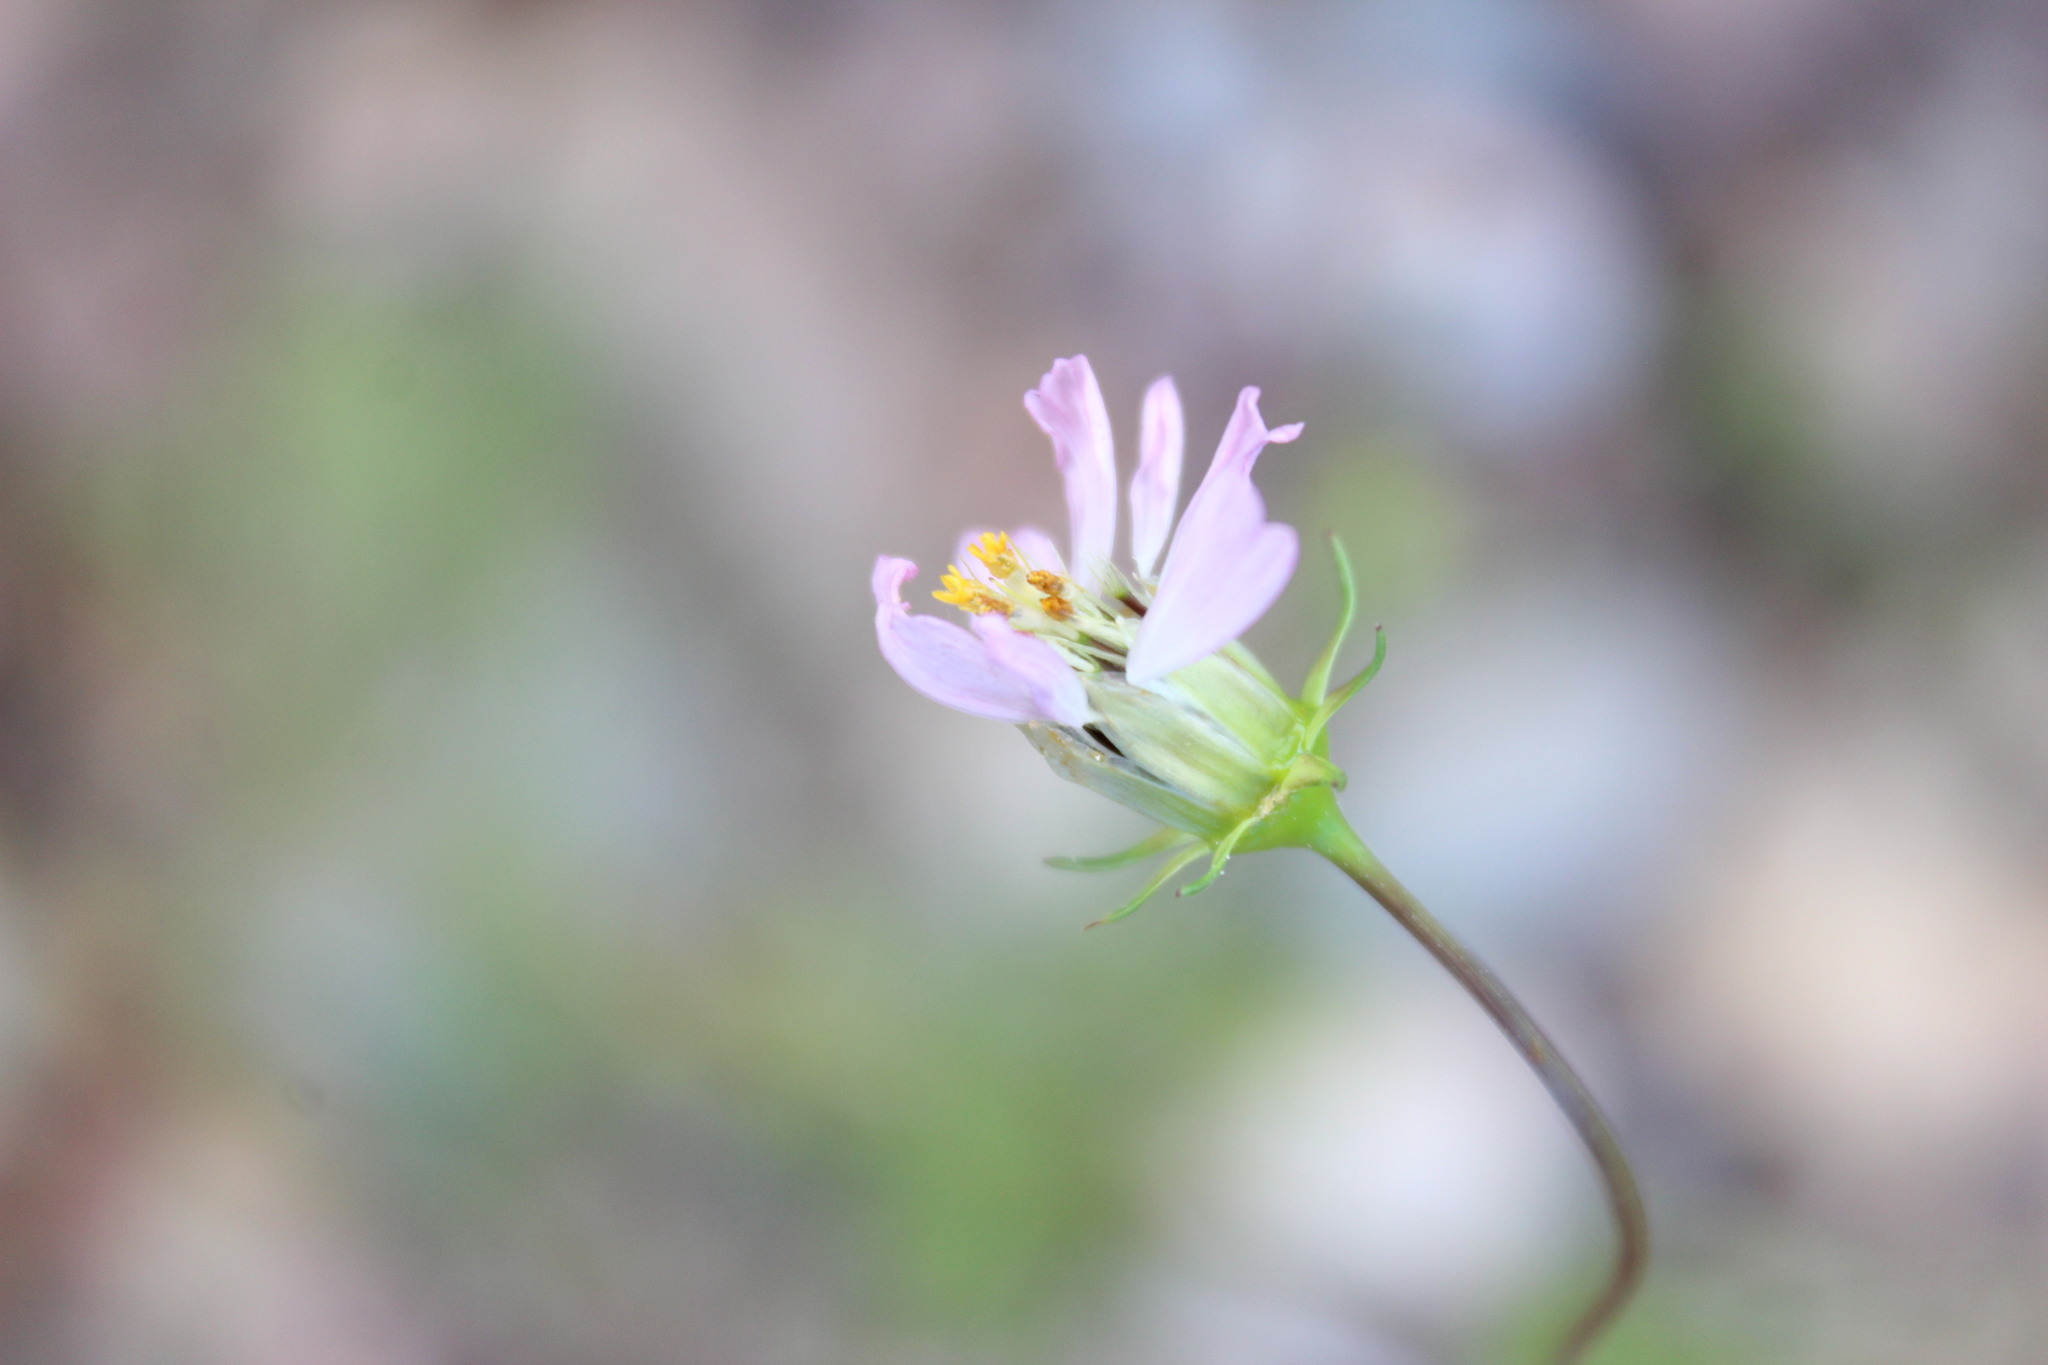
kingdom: Plantae
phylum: Tracheophyta
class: Magnoliopsida
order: Asterales
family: Asteraceae
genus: Cosmos
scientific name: Cosmos parviflorus
